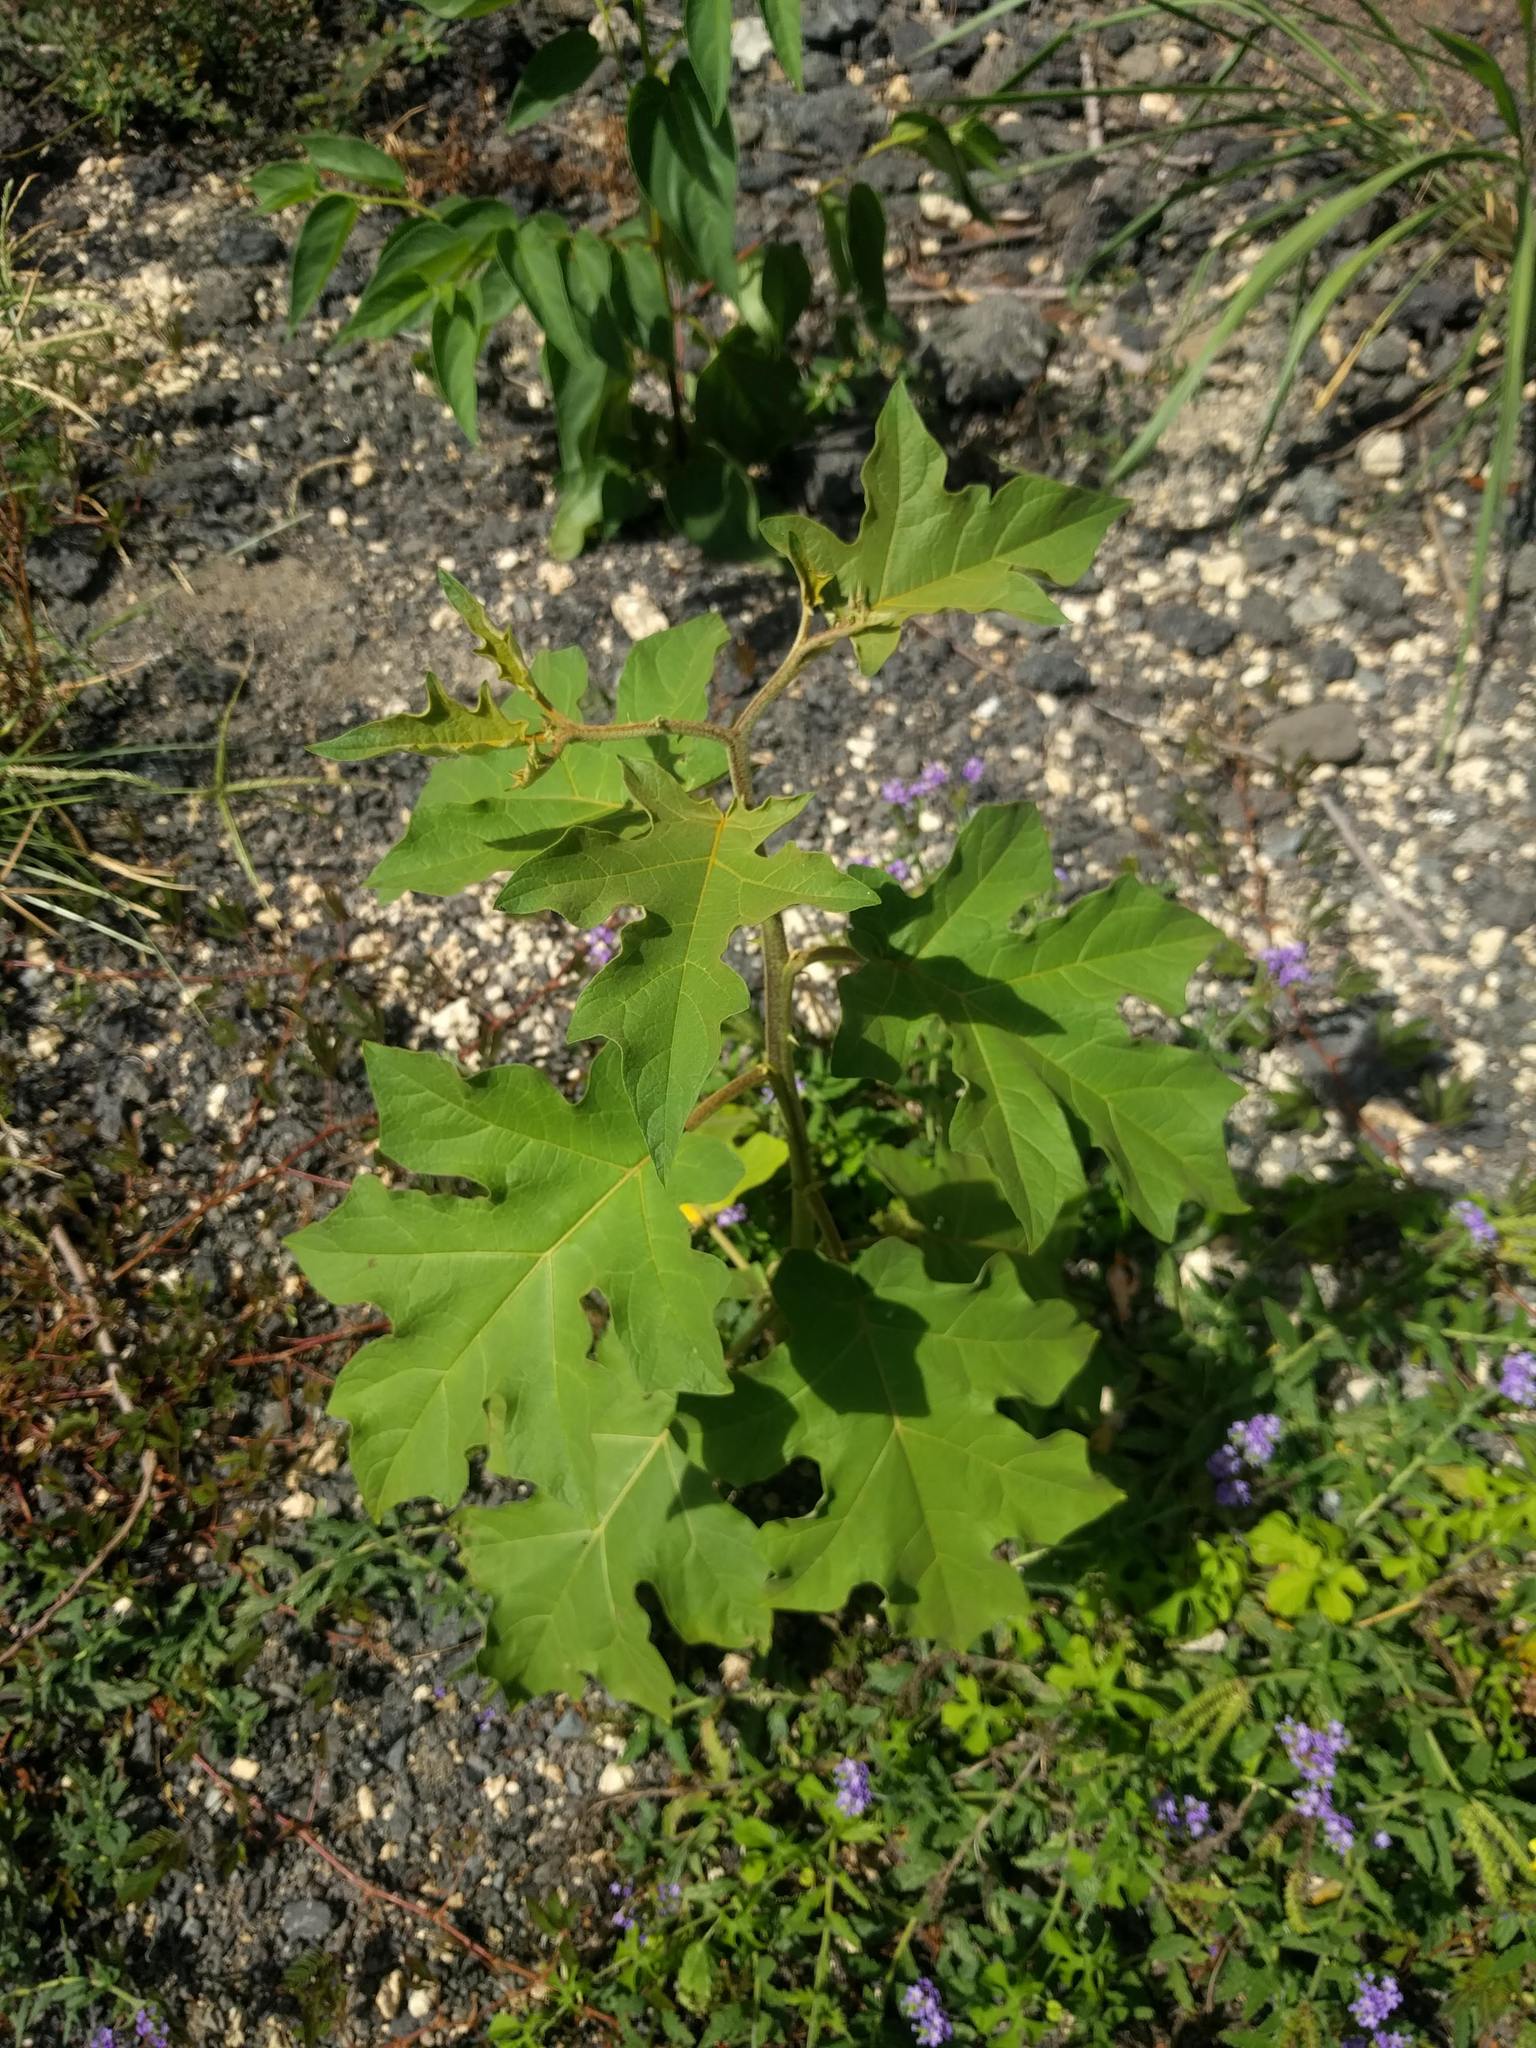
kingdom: Plantae
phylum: Tracheophyta
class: Magnoliopsida
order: Solanales
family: Solanaceae
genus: Solanum
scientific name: Solanum torvum
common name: Turkey berry
